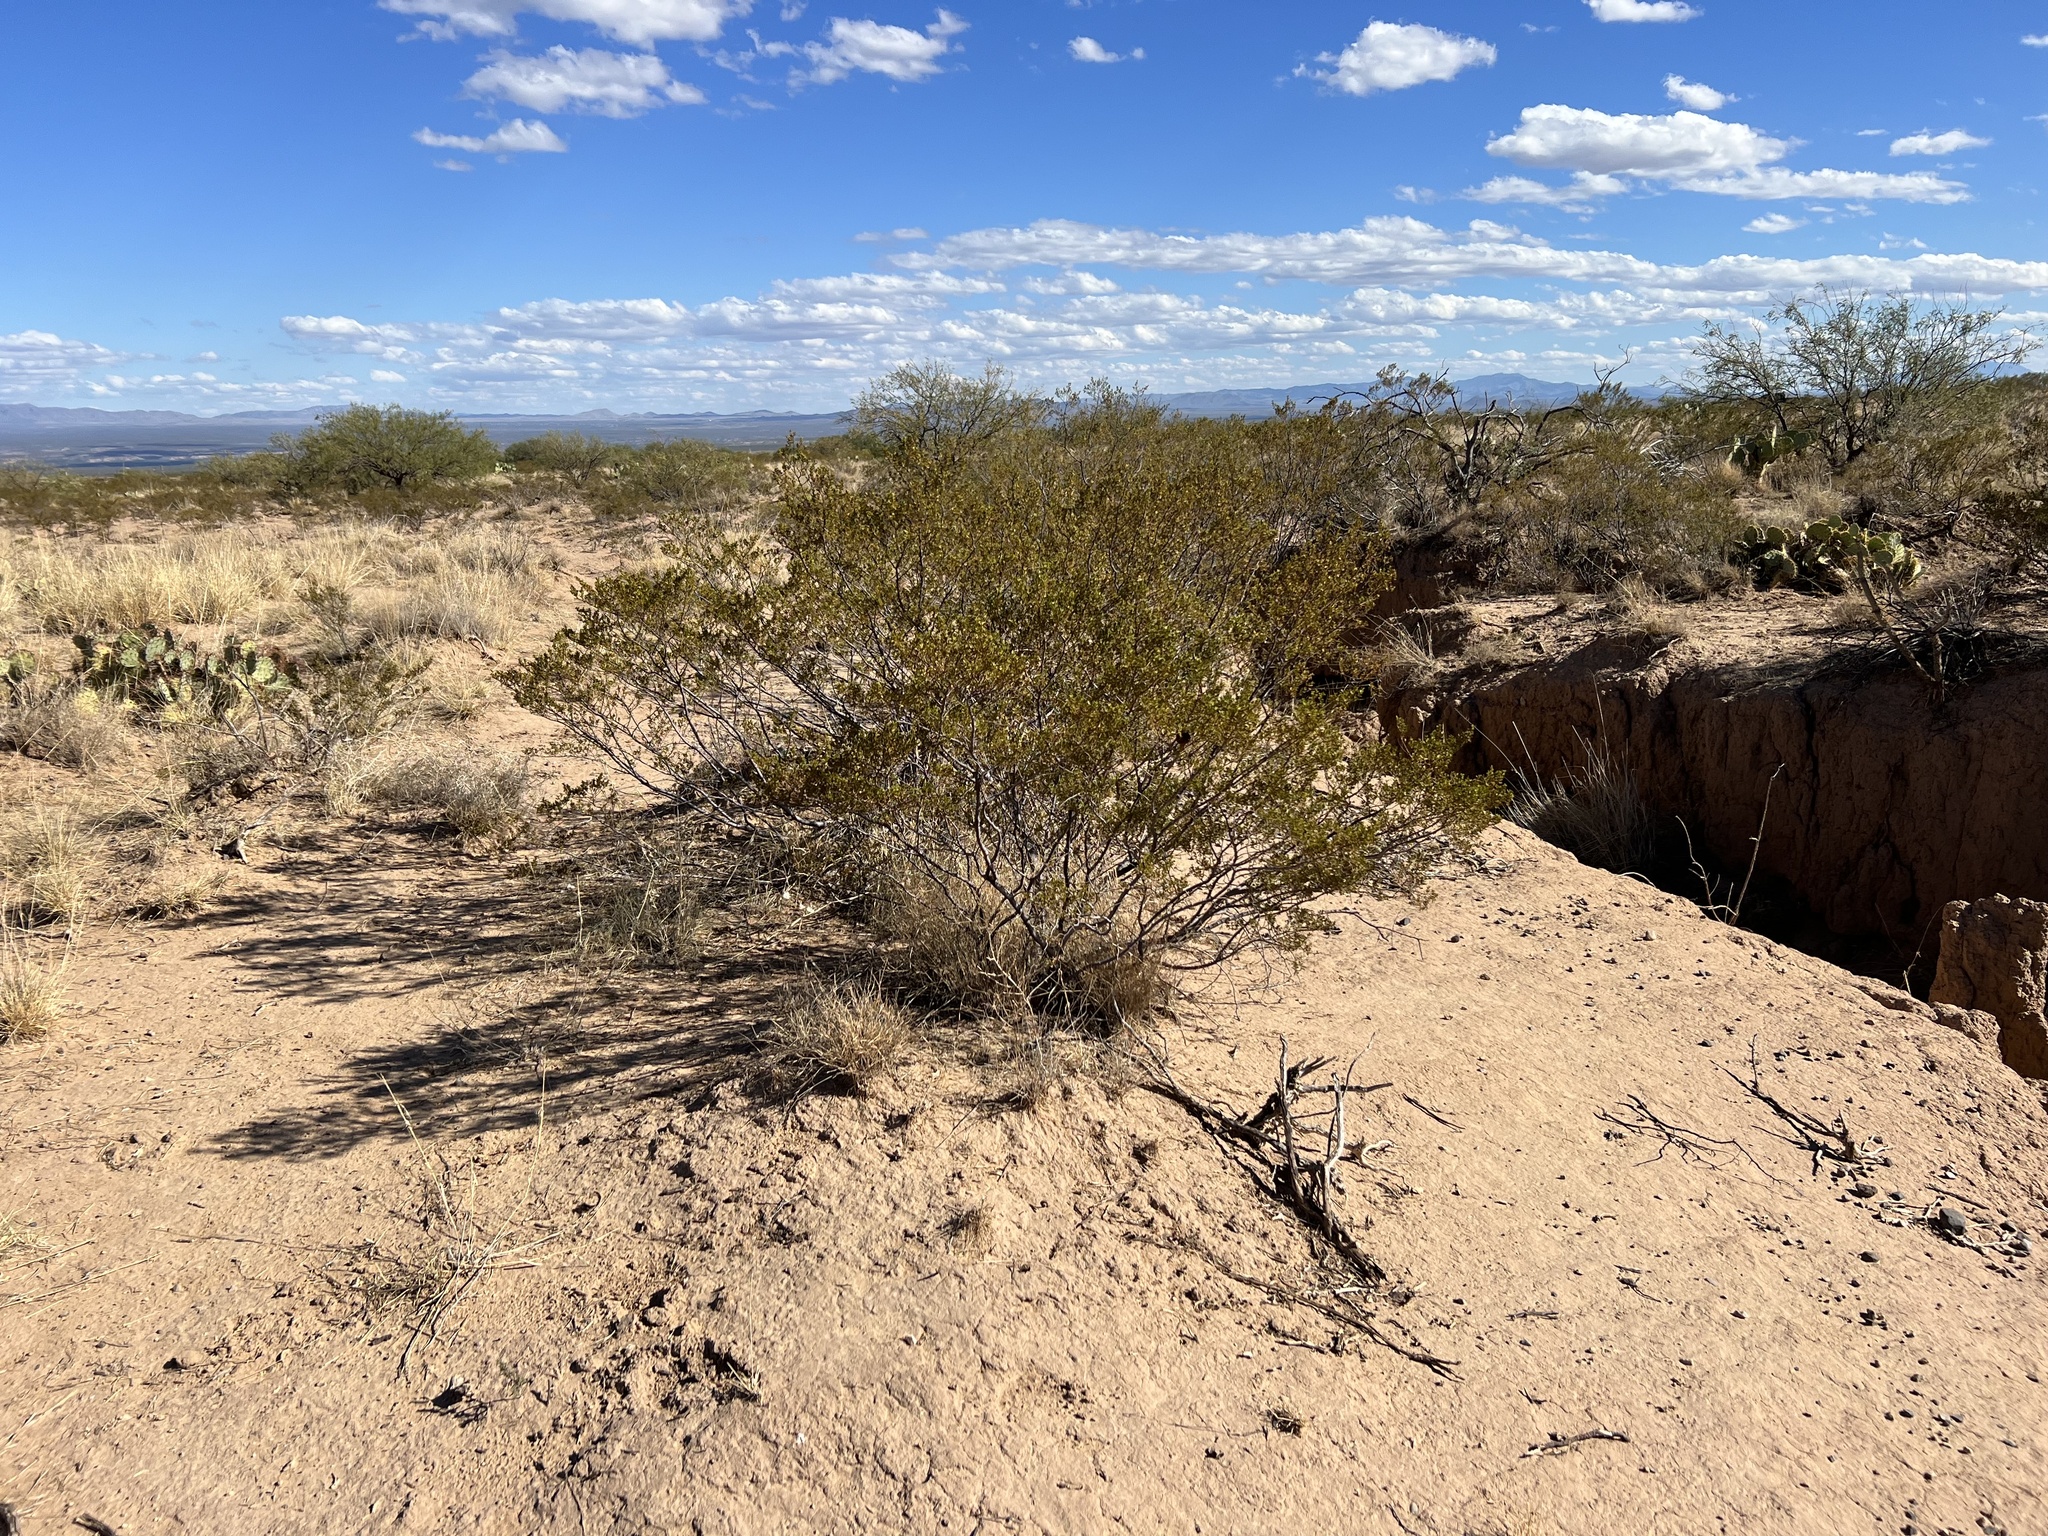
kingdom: Plantae
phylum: Tracheophyta
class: Magnoliopsida
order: Zygophyllales
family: Zygophyllaceae
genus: Larrea
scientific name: Larrea tridentata
